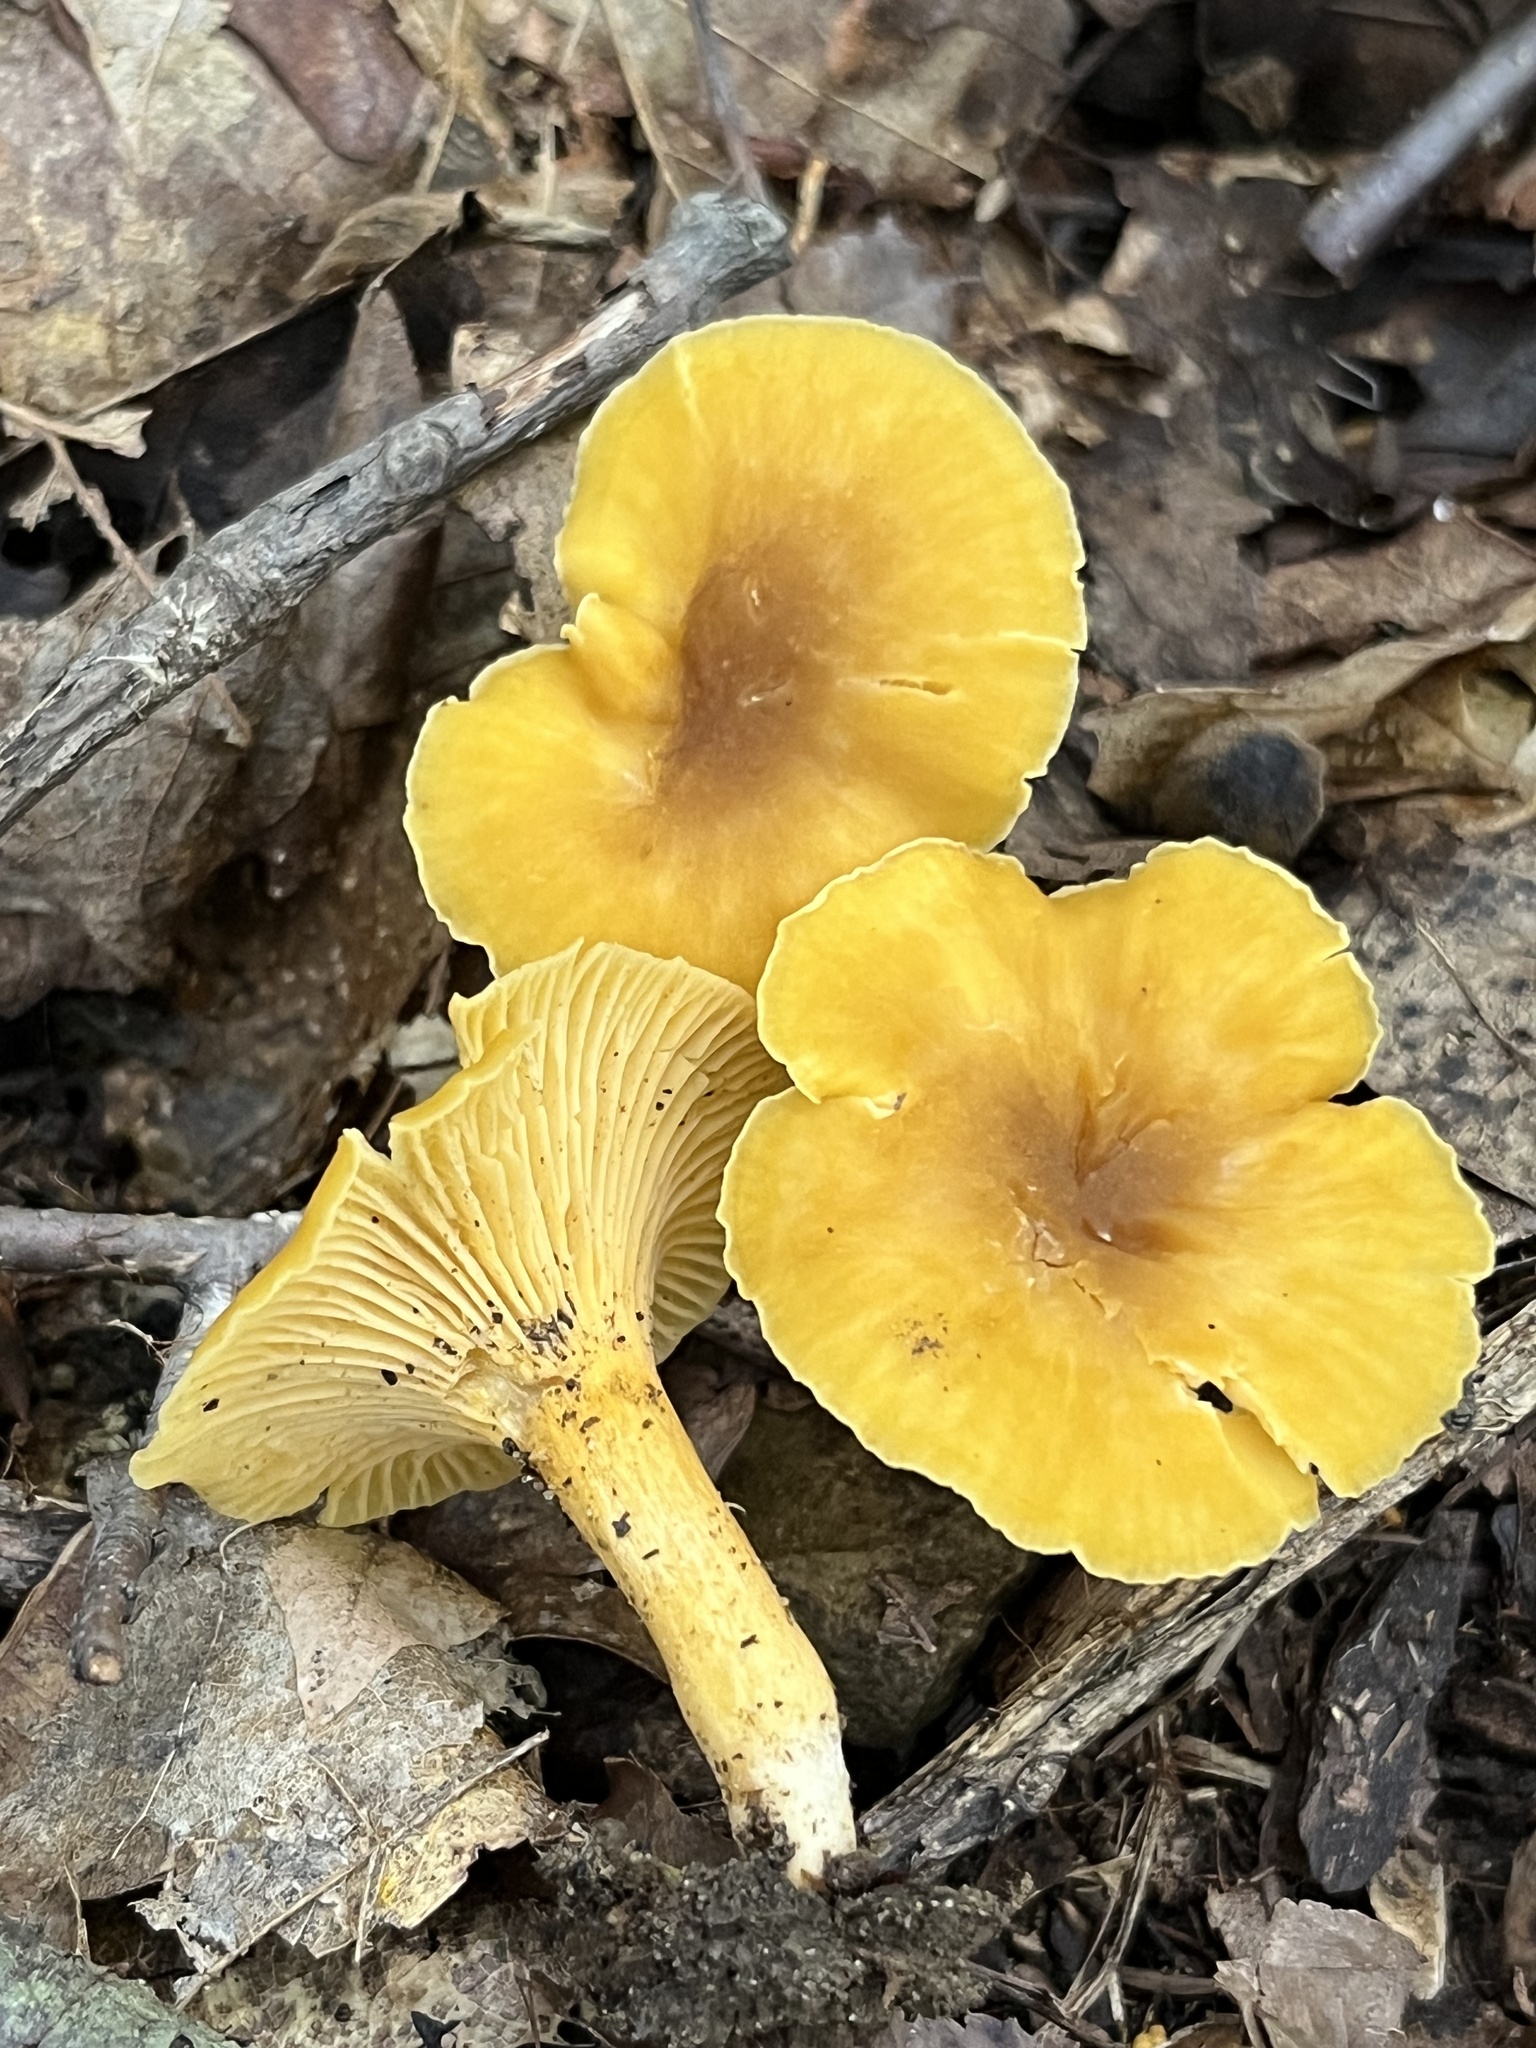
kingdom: Fungi
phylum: Basidiomycota
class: Agaricomycetes
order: Cantharellales
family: Hydnaceae
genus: Cantharellus
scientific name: Cantharellus appalachiensis
